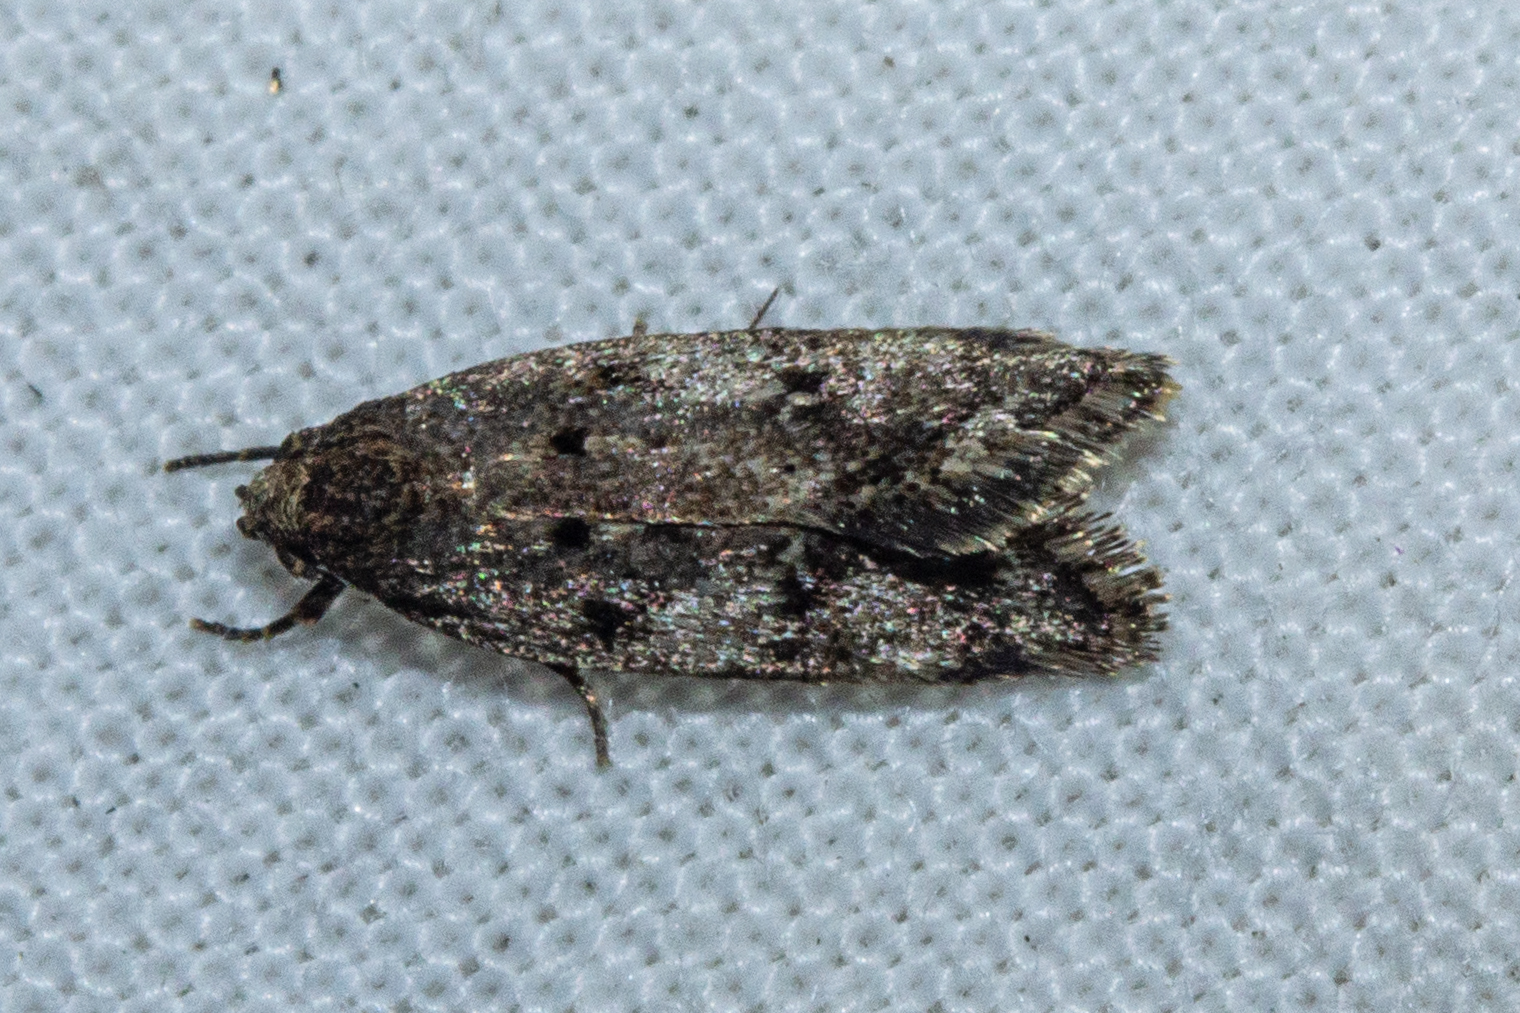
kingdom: Animalia
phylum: Arthropoda
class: Insecta
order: Lepidoptera
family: Oecophoridae
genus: Trachypepla
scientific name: Trachypepla anastrella
